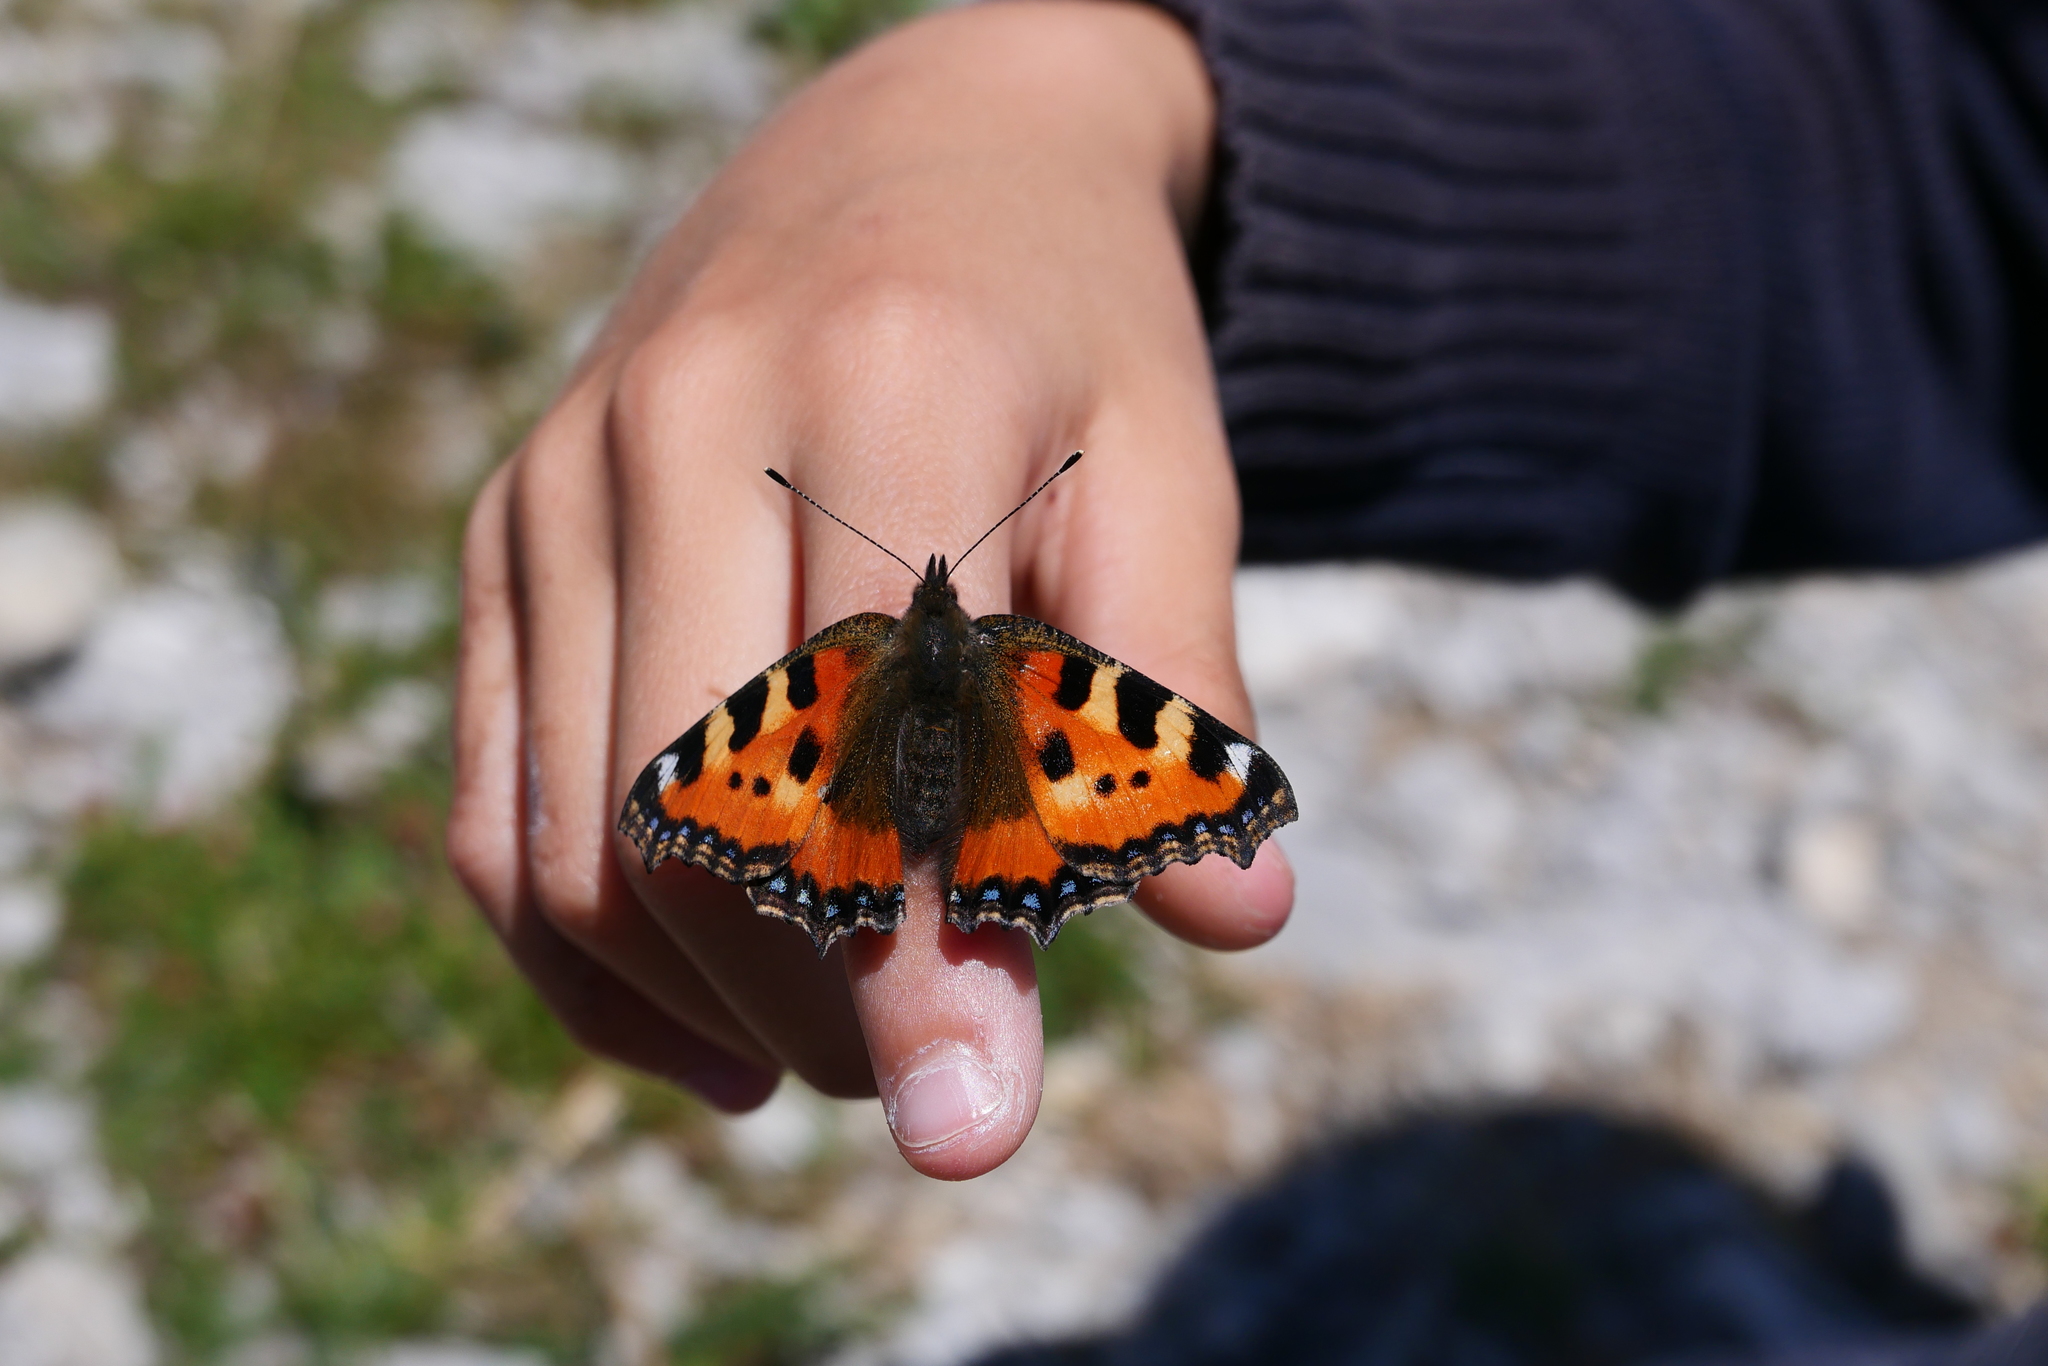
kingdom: Animalia
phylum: Arthropoda
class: Insecta
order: Lepidoptera
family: Nymphalidae
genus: Aglais
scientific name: Aglais urticae
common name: Small tortoiseshell
